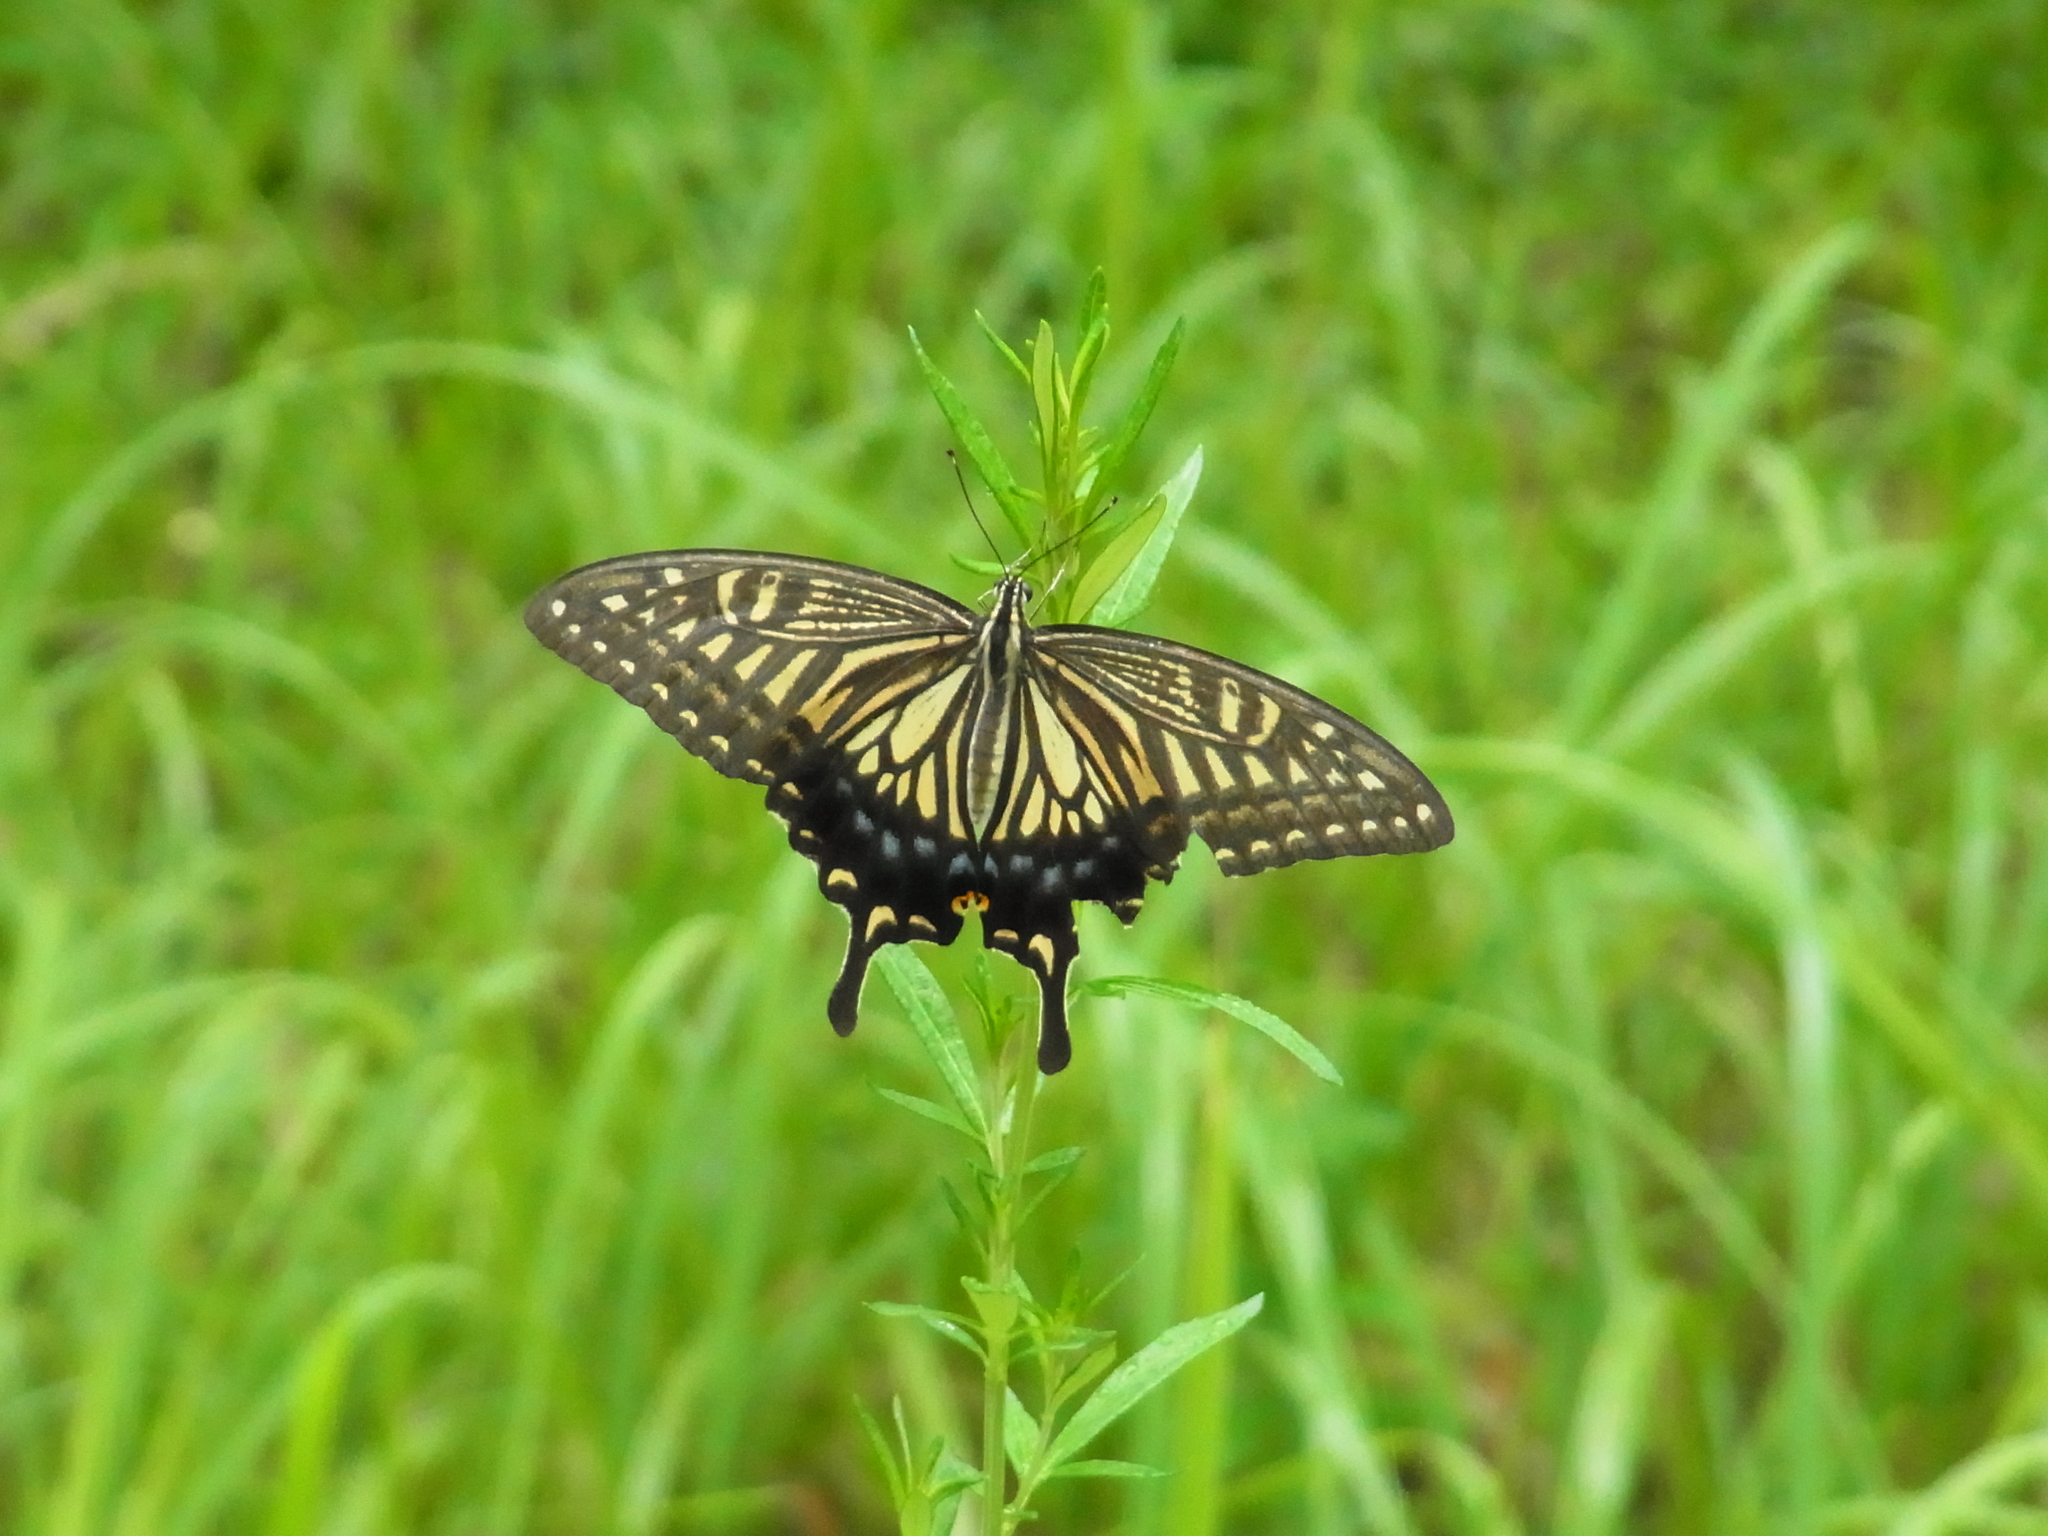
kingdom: Animalia
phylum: Arthropoda
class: Insecta
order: Lepidoptera
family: Papilionidae
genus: Papilio
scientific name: Papilio xuthus
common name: Asian swallowtail
